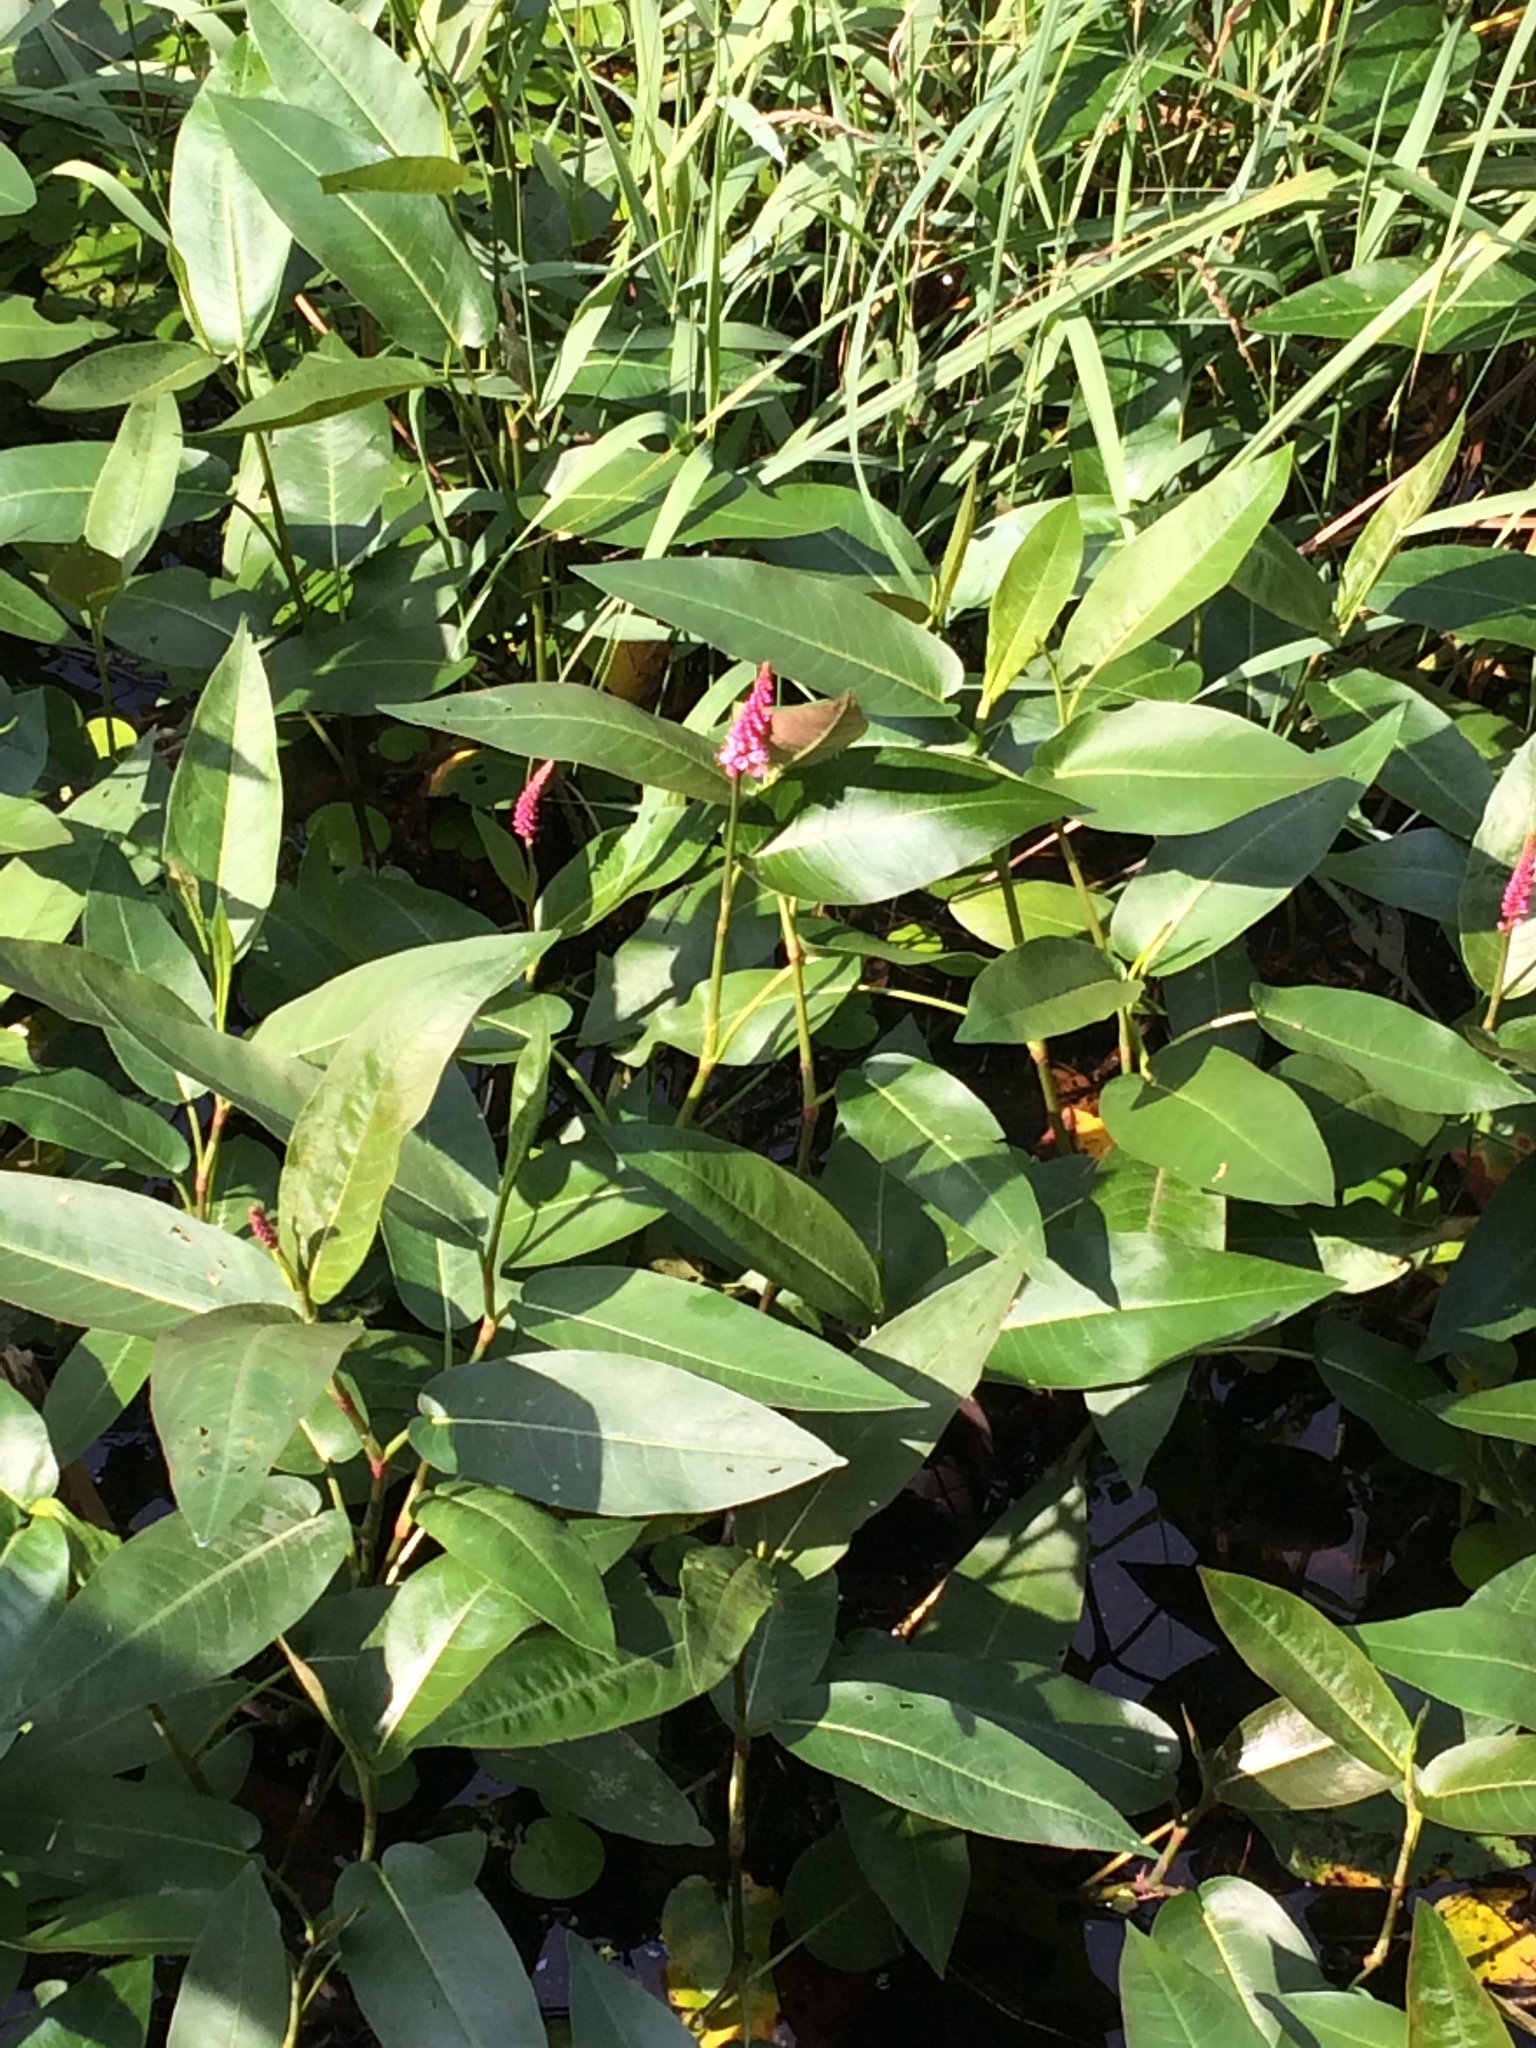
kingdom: Plantae
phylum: Tracheophyta
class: Magnoliopsida
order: Caryophyllales
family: Polygonaceae
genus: Persicaria
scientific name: Persicaria amphibia
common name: Amphibious bistort
